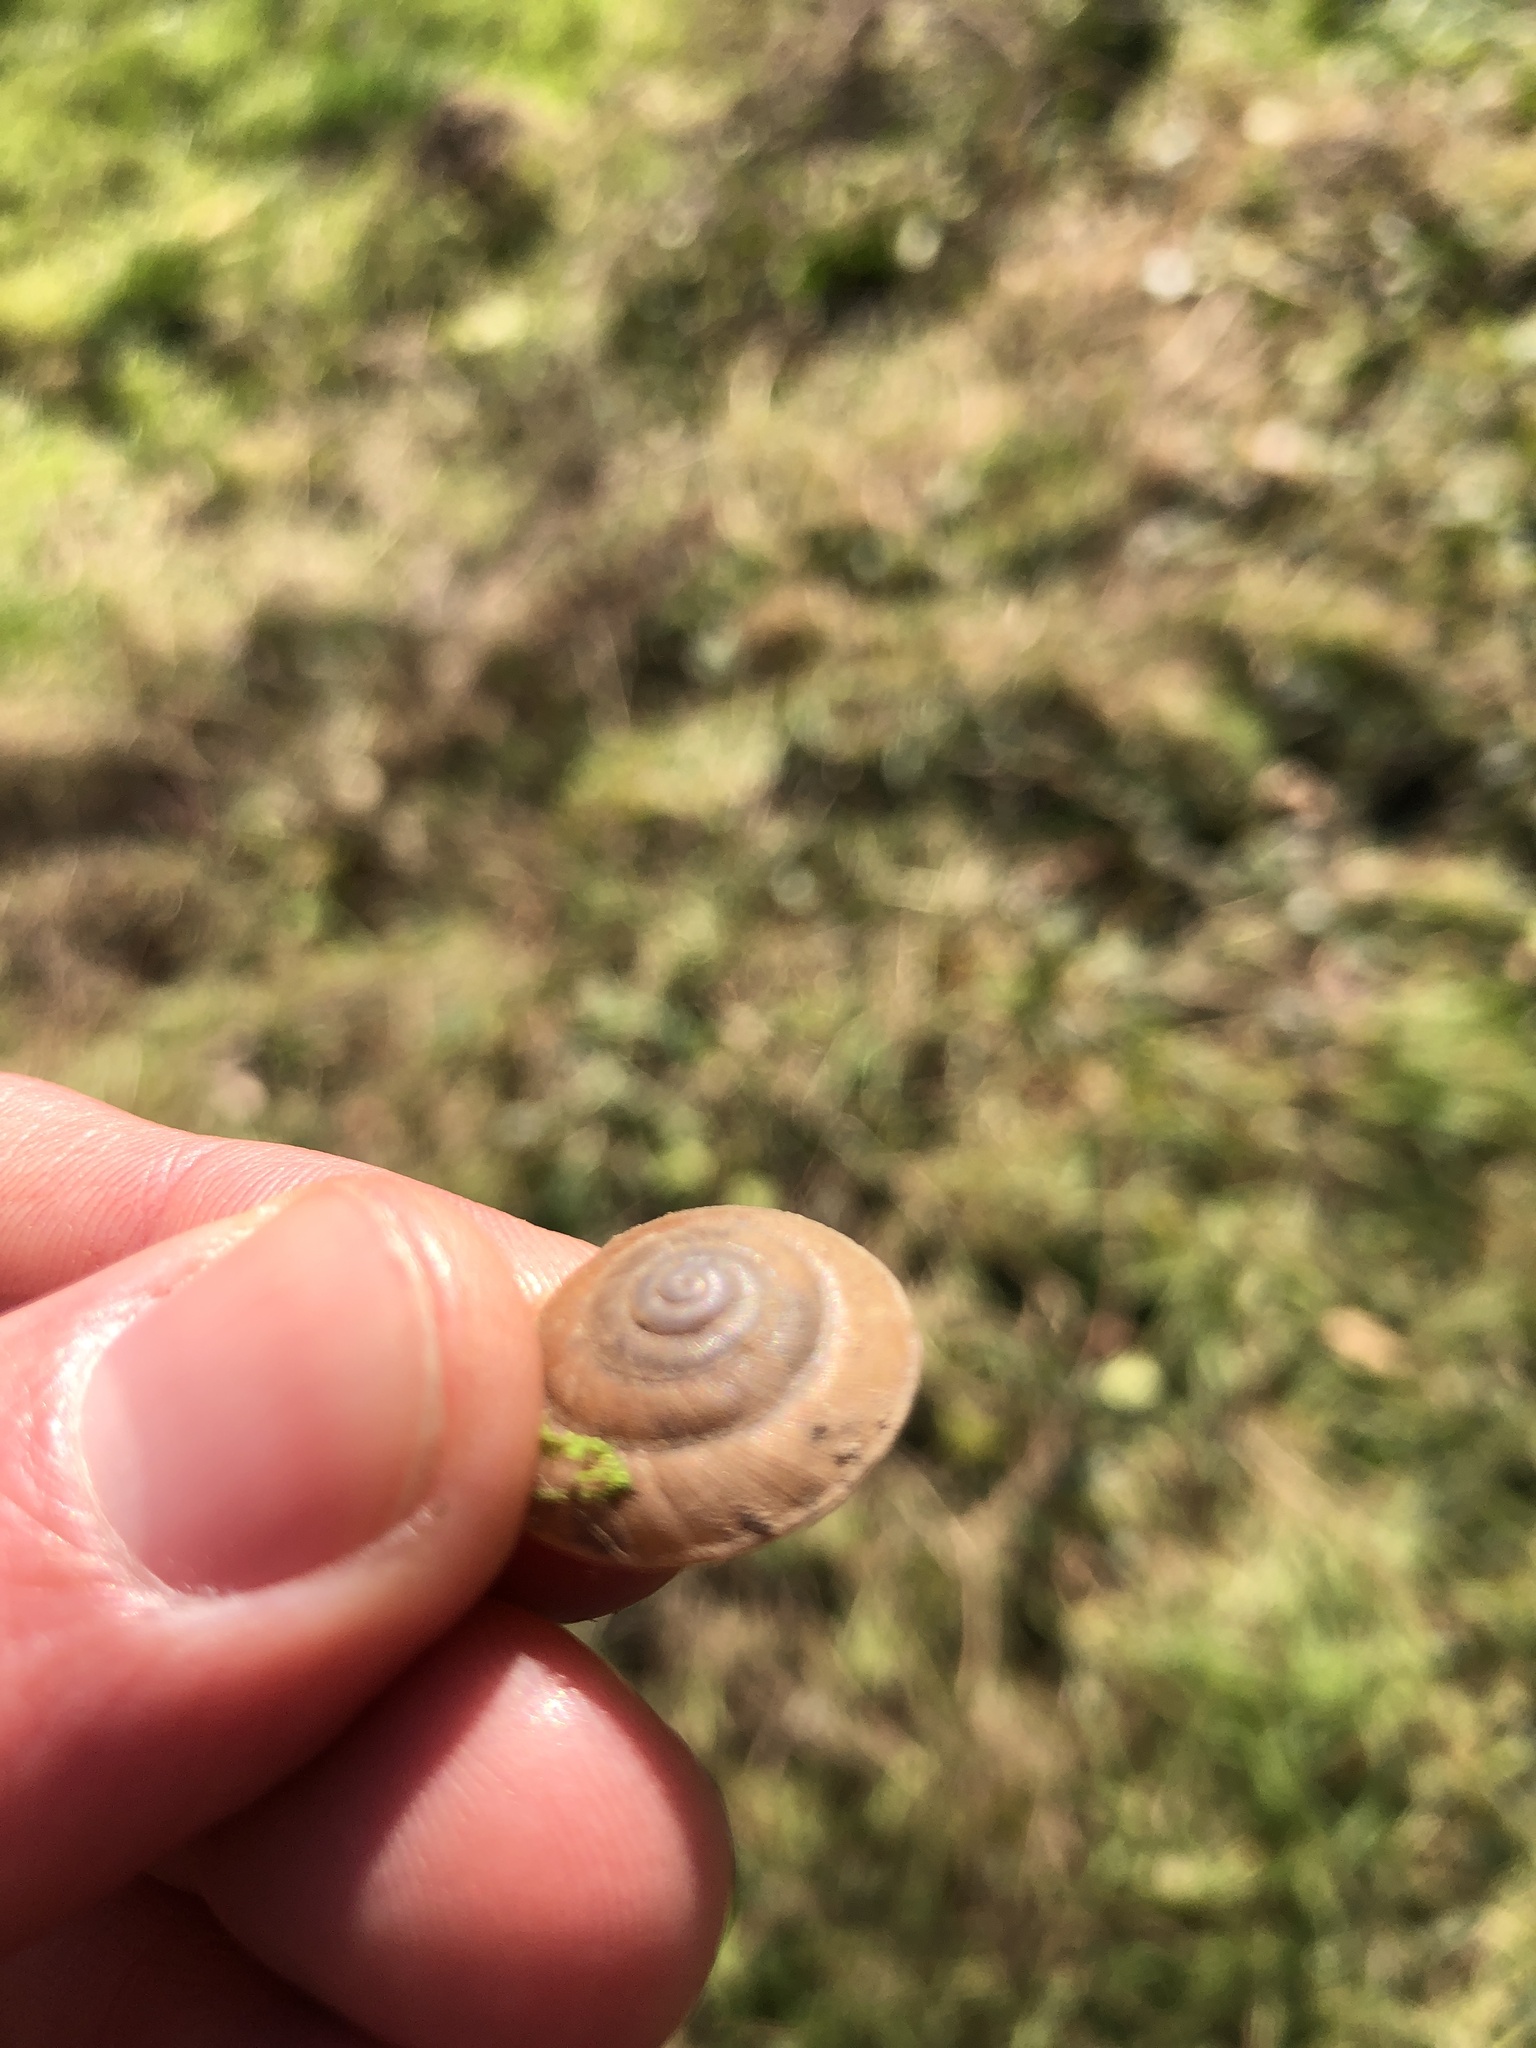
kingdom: Animalia
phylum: Mollusca
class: Gastropoda
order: Stylommatophora
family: Zonitidae
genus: Aegopis
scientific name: Aegopis gemonensis
